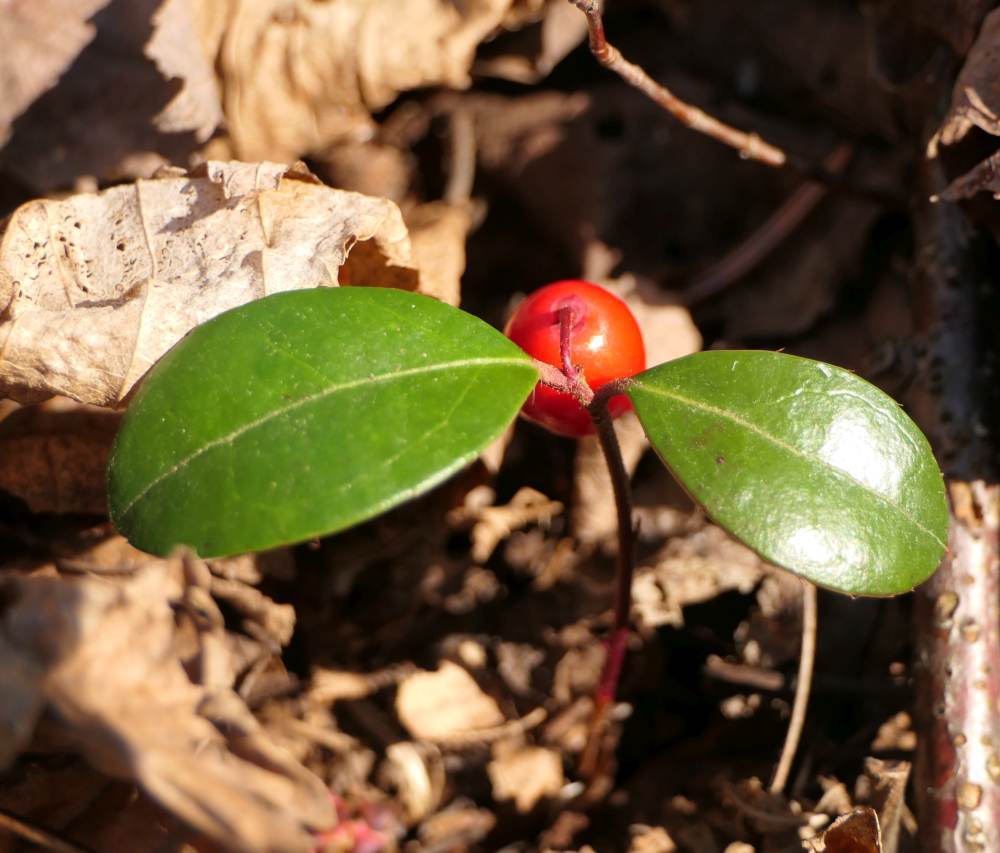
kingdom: Plantae
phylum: Tracheophyta
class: Magnoliopsida
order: Ericales
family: Ericaceae
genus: Gaultheria
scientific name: Gaultheria procumbens
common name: Checkerberry
